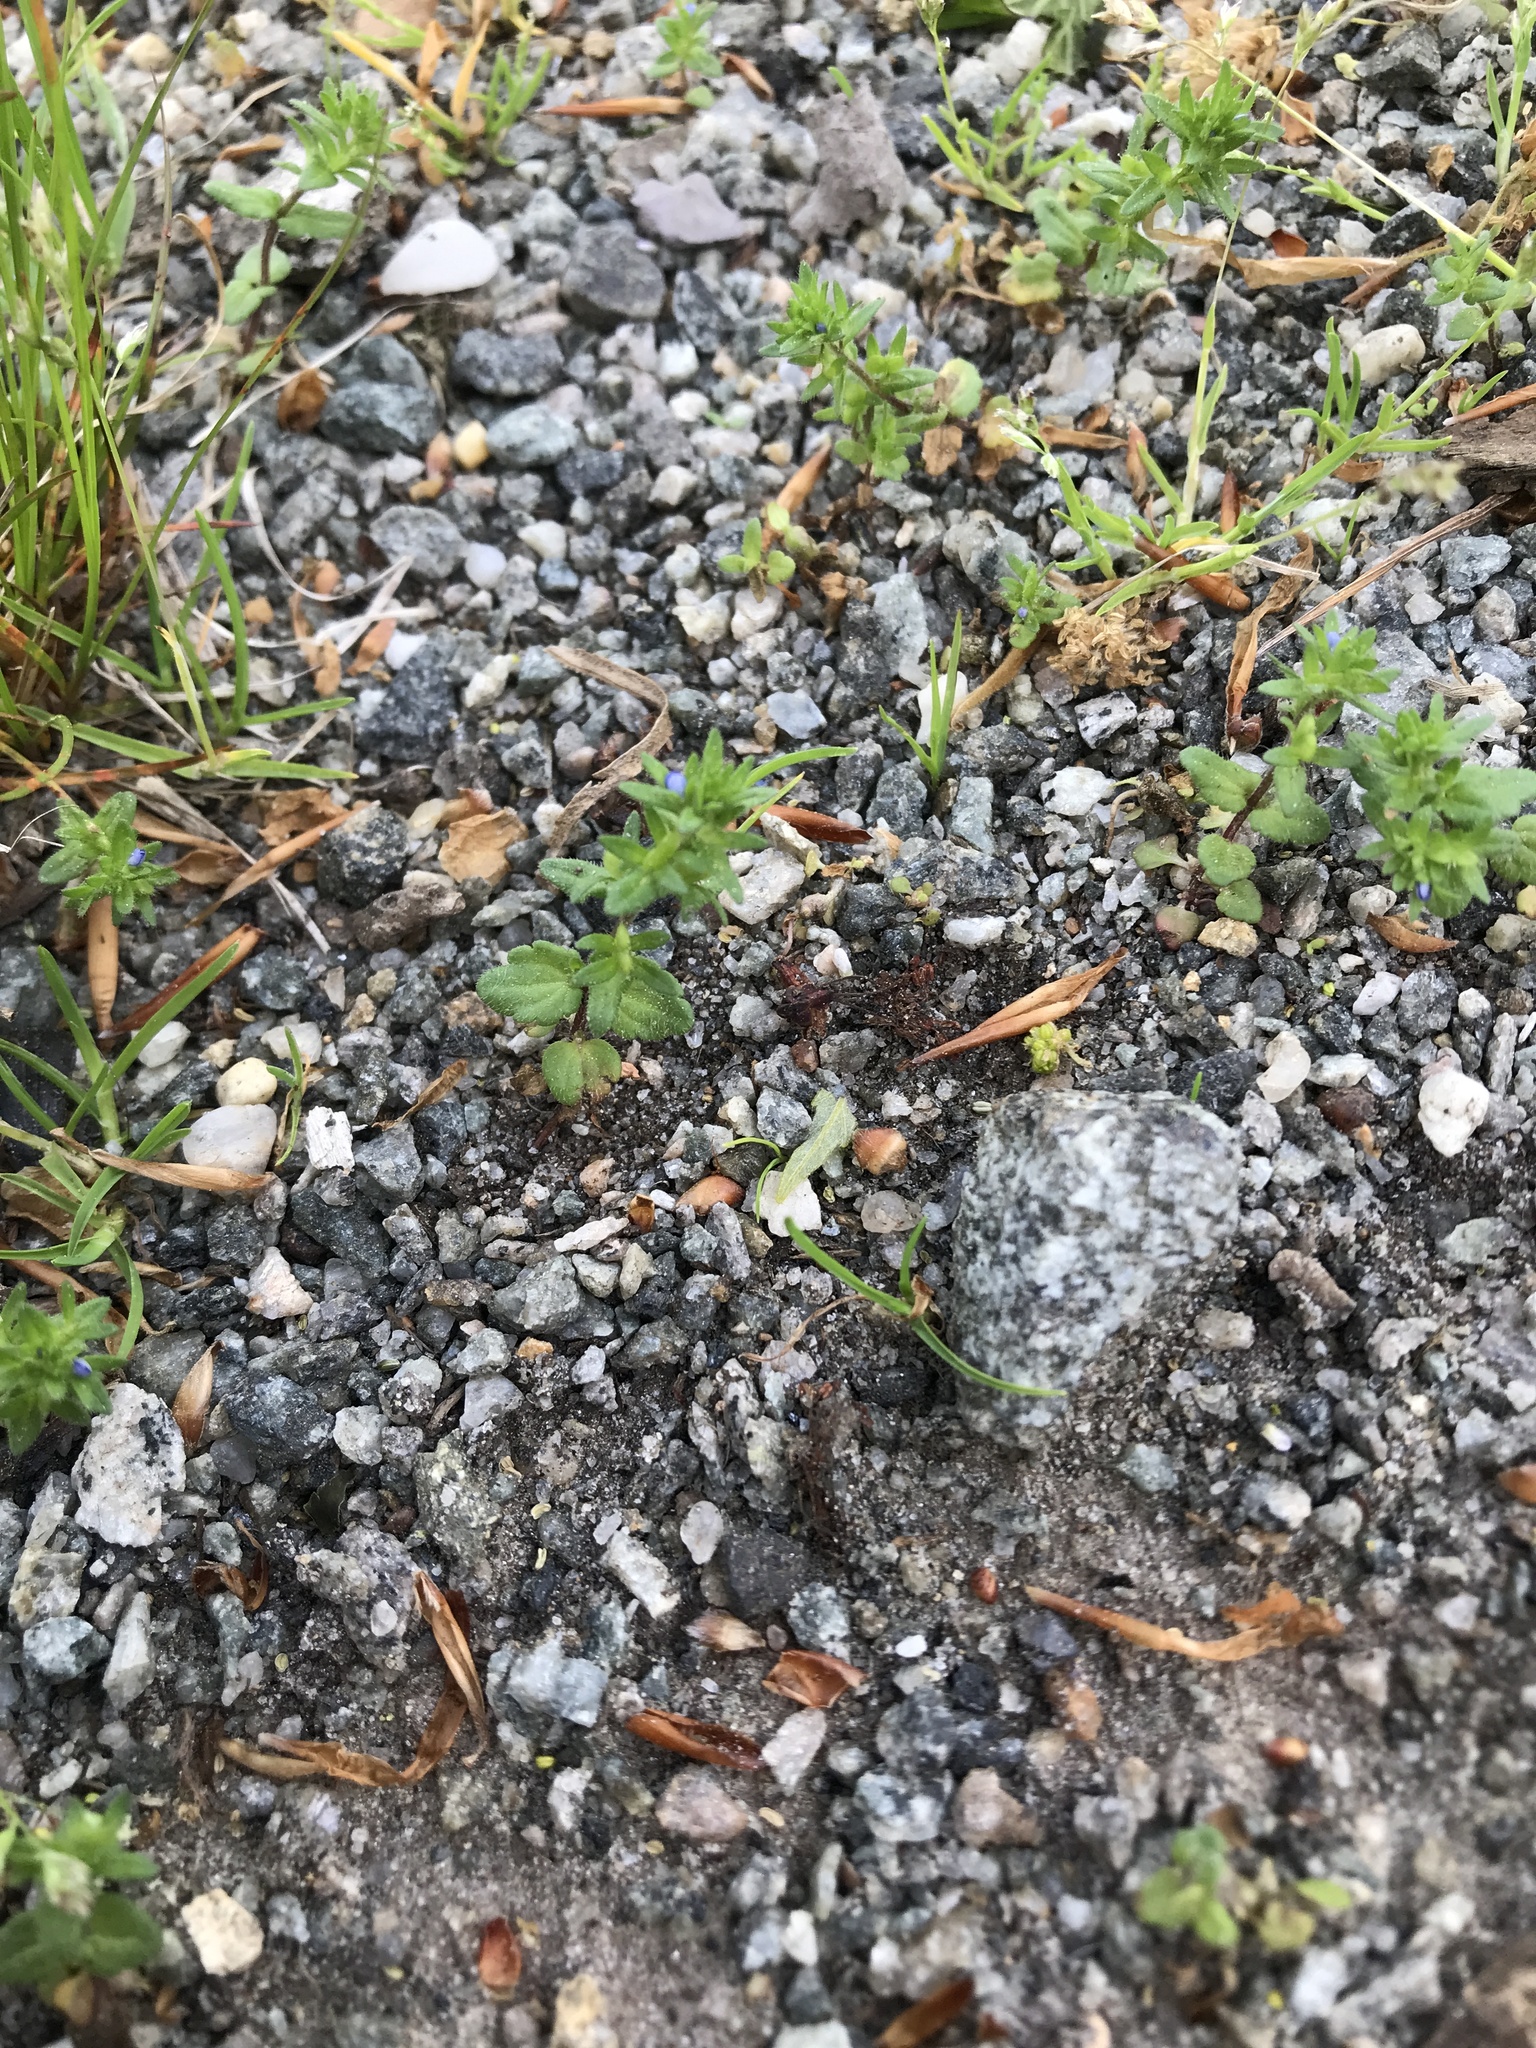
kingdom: Plantae
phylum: Tracheophyta
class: Magnoliopsida
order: Lamiales
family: Plantaginaceae
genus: Veronica
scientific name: Veronica arvensis
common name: Corn speedwell
